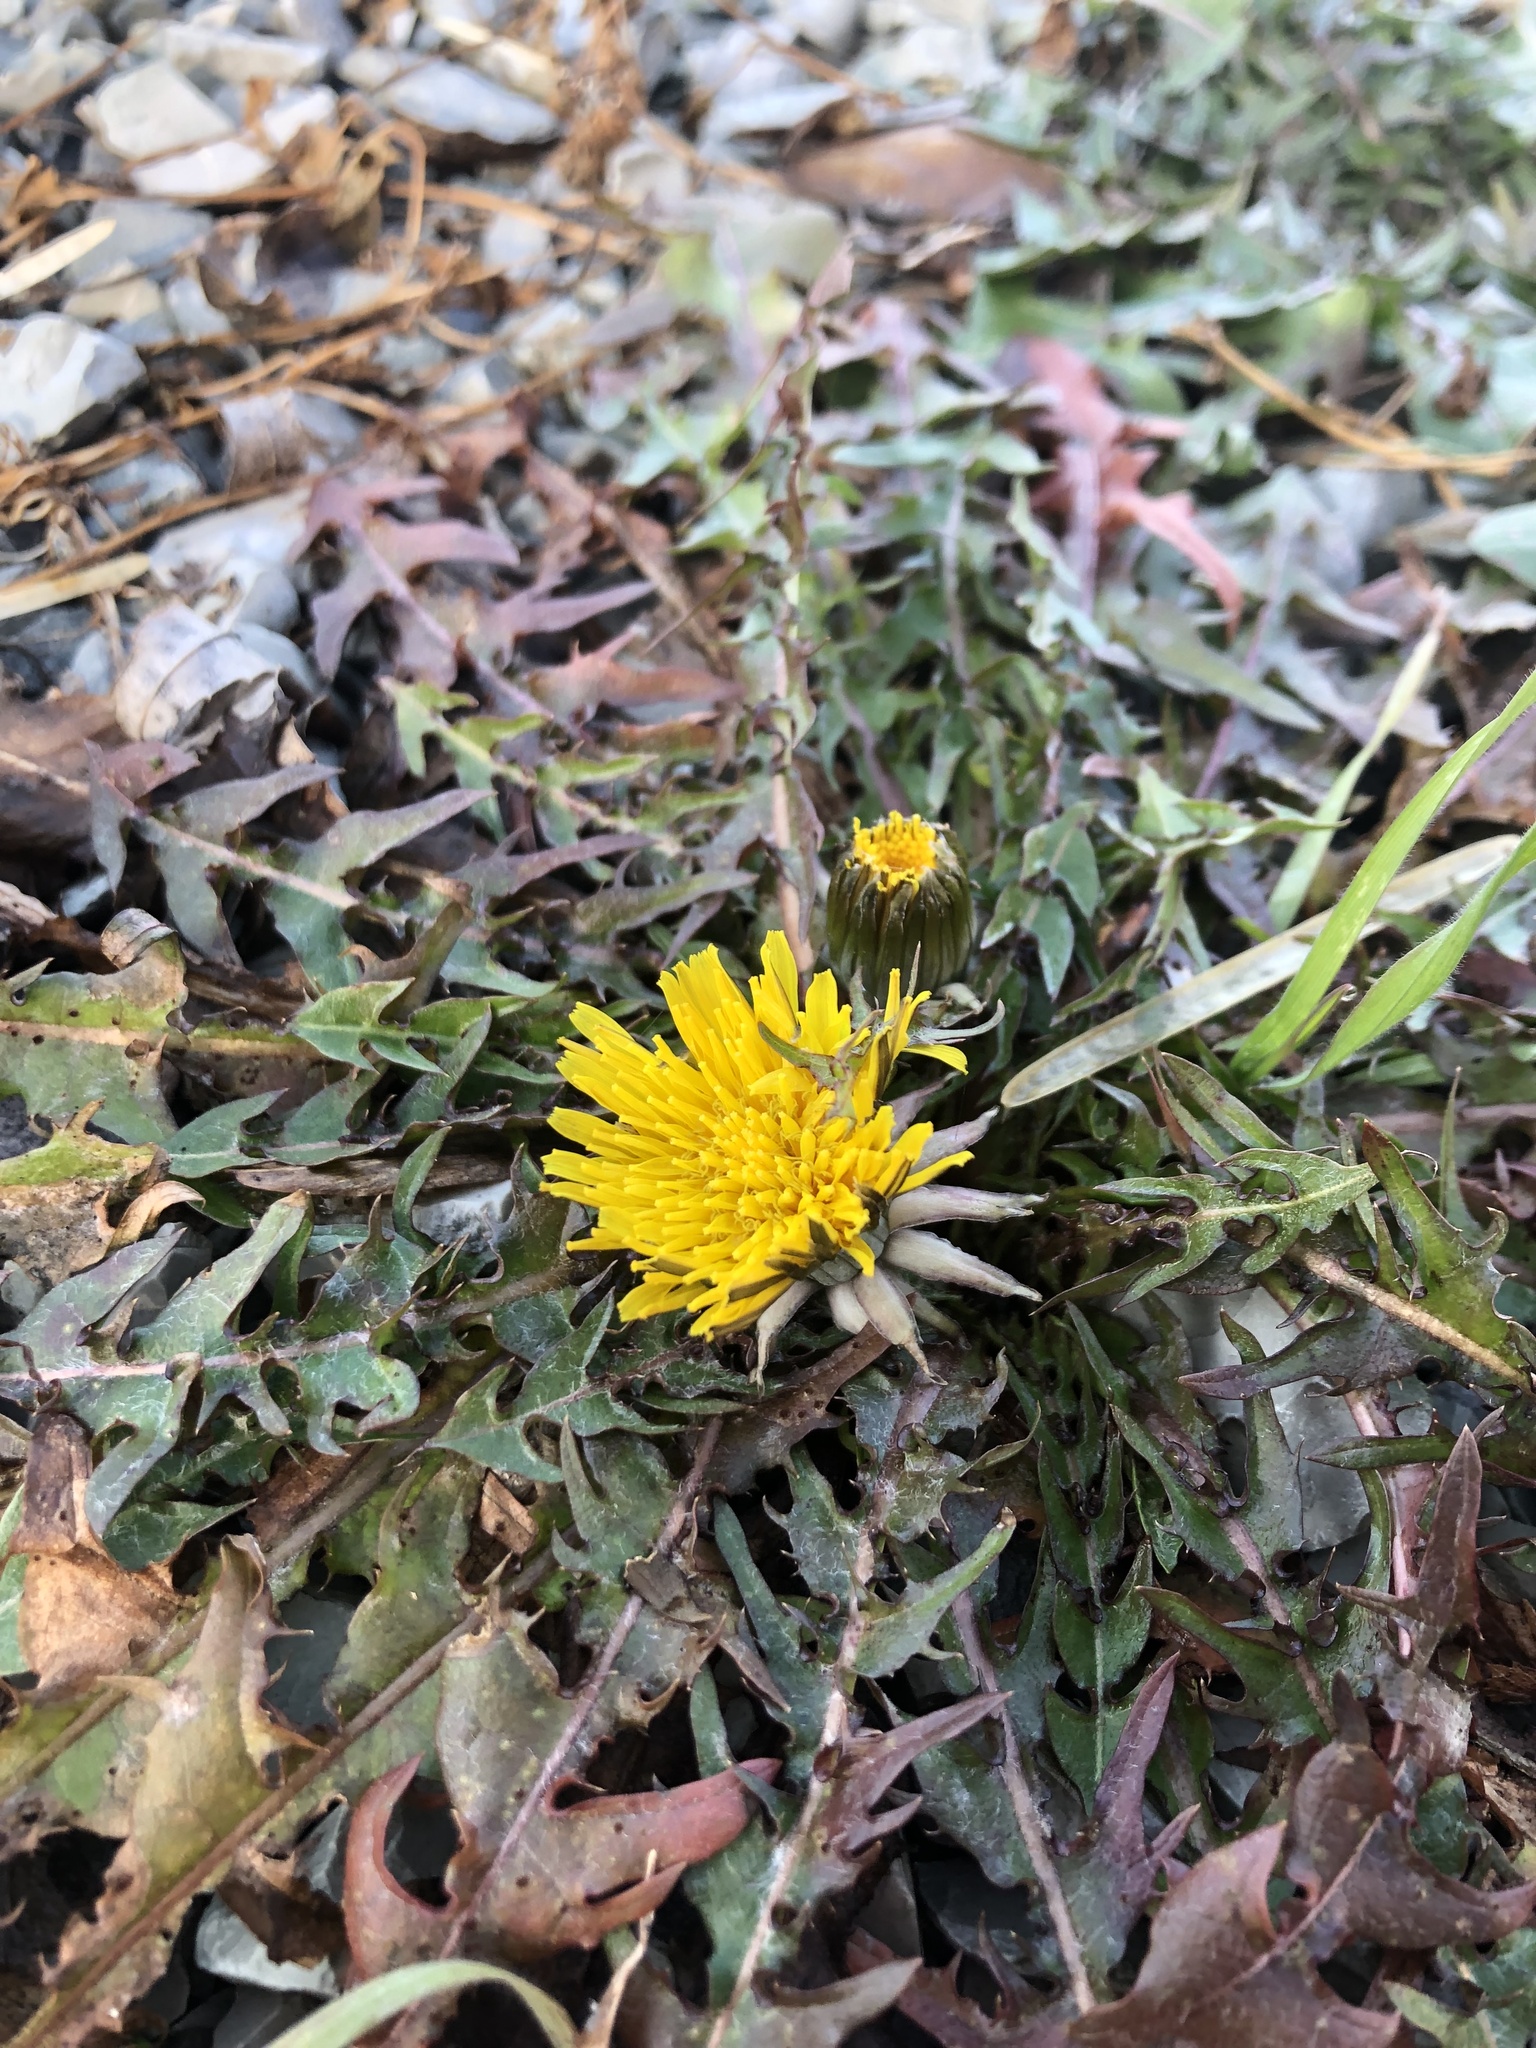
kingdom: Plantae
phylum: Tracheophyta
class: Magnoliopsida
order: Asterales
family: Asteraceae
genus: Taraxacum
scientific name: Taraxacum officinale
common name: Common dandelion
